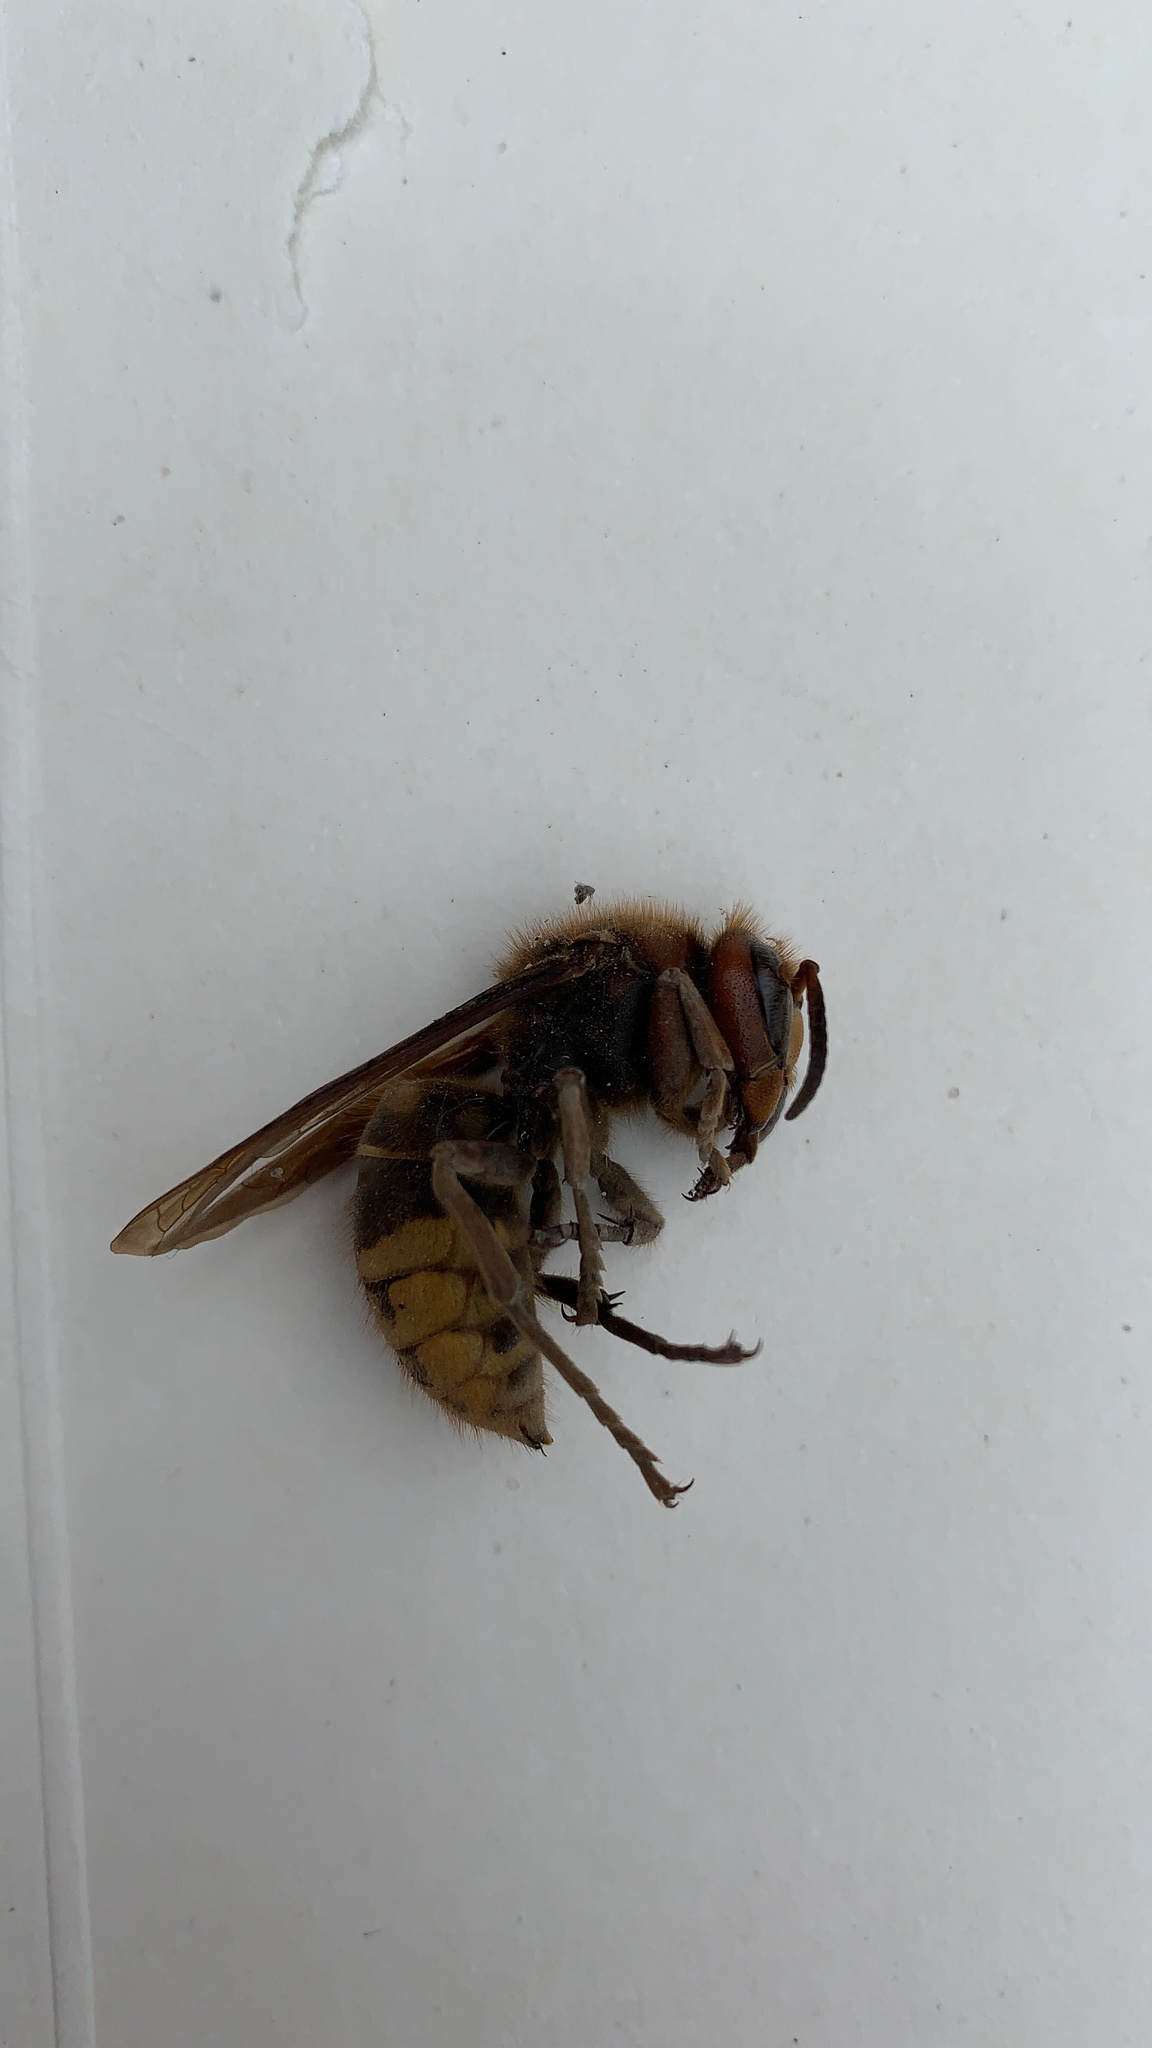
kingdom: Animalia
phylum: Arthropoda
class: Insecta
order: Hymenoptera
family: Vespidae
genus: Vespa
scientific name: Vespa crabro
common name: Hornet
